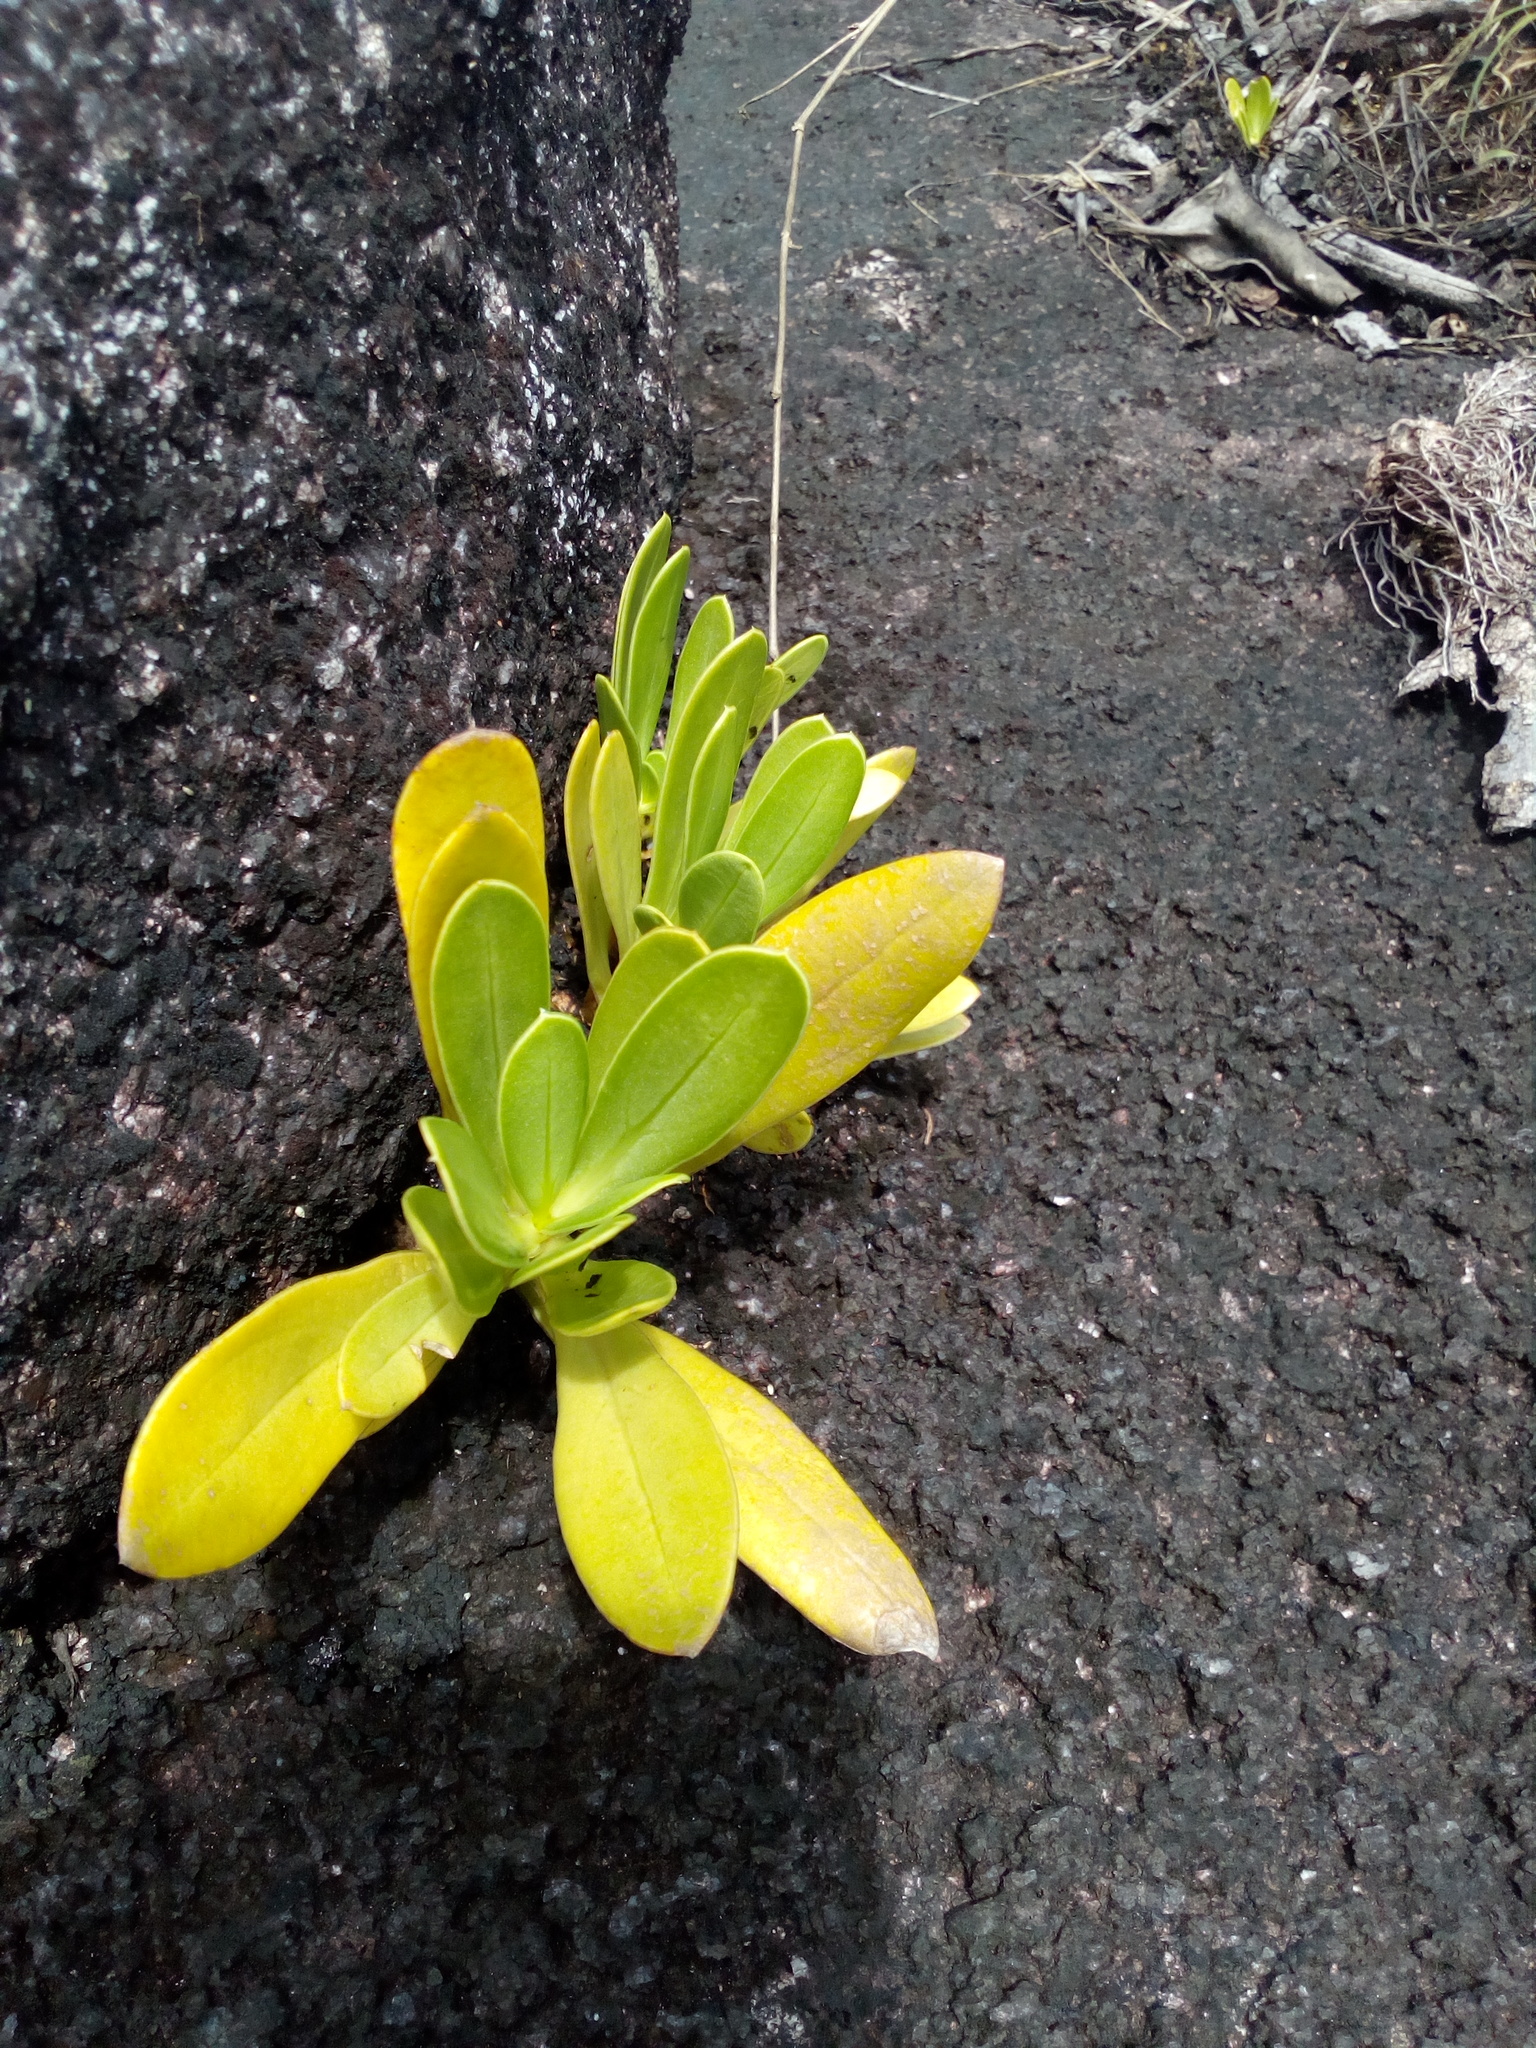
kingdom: Plantae
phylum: Tracheophyta
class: Magnoliopsida
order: Gentianales
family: Gentianaceae
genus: Chelonanthus
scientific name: Chelonanthus hamatus
